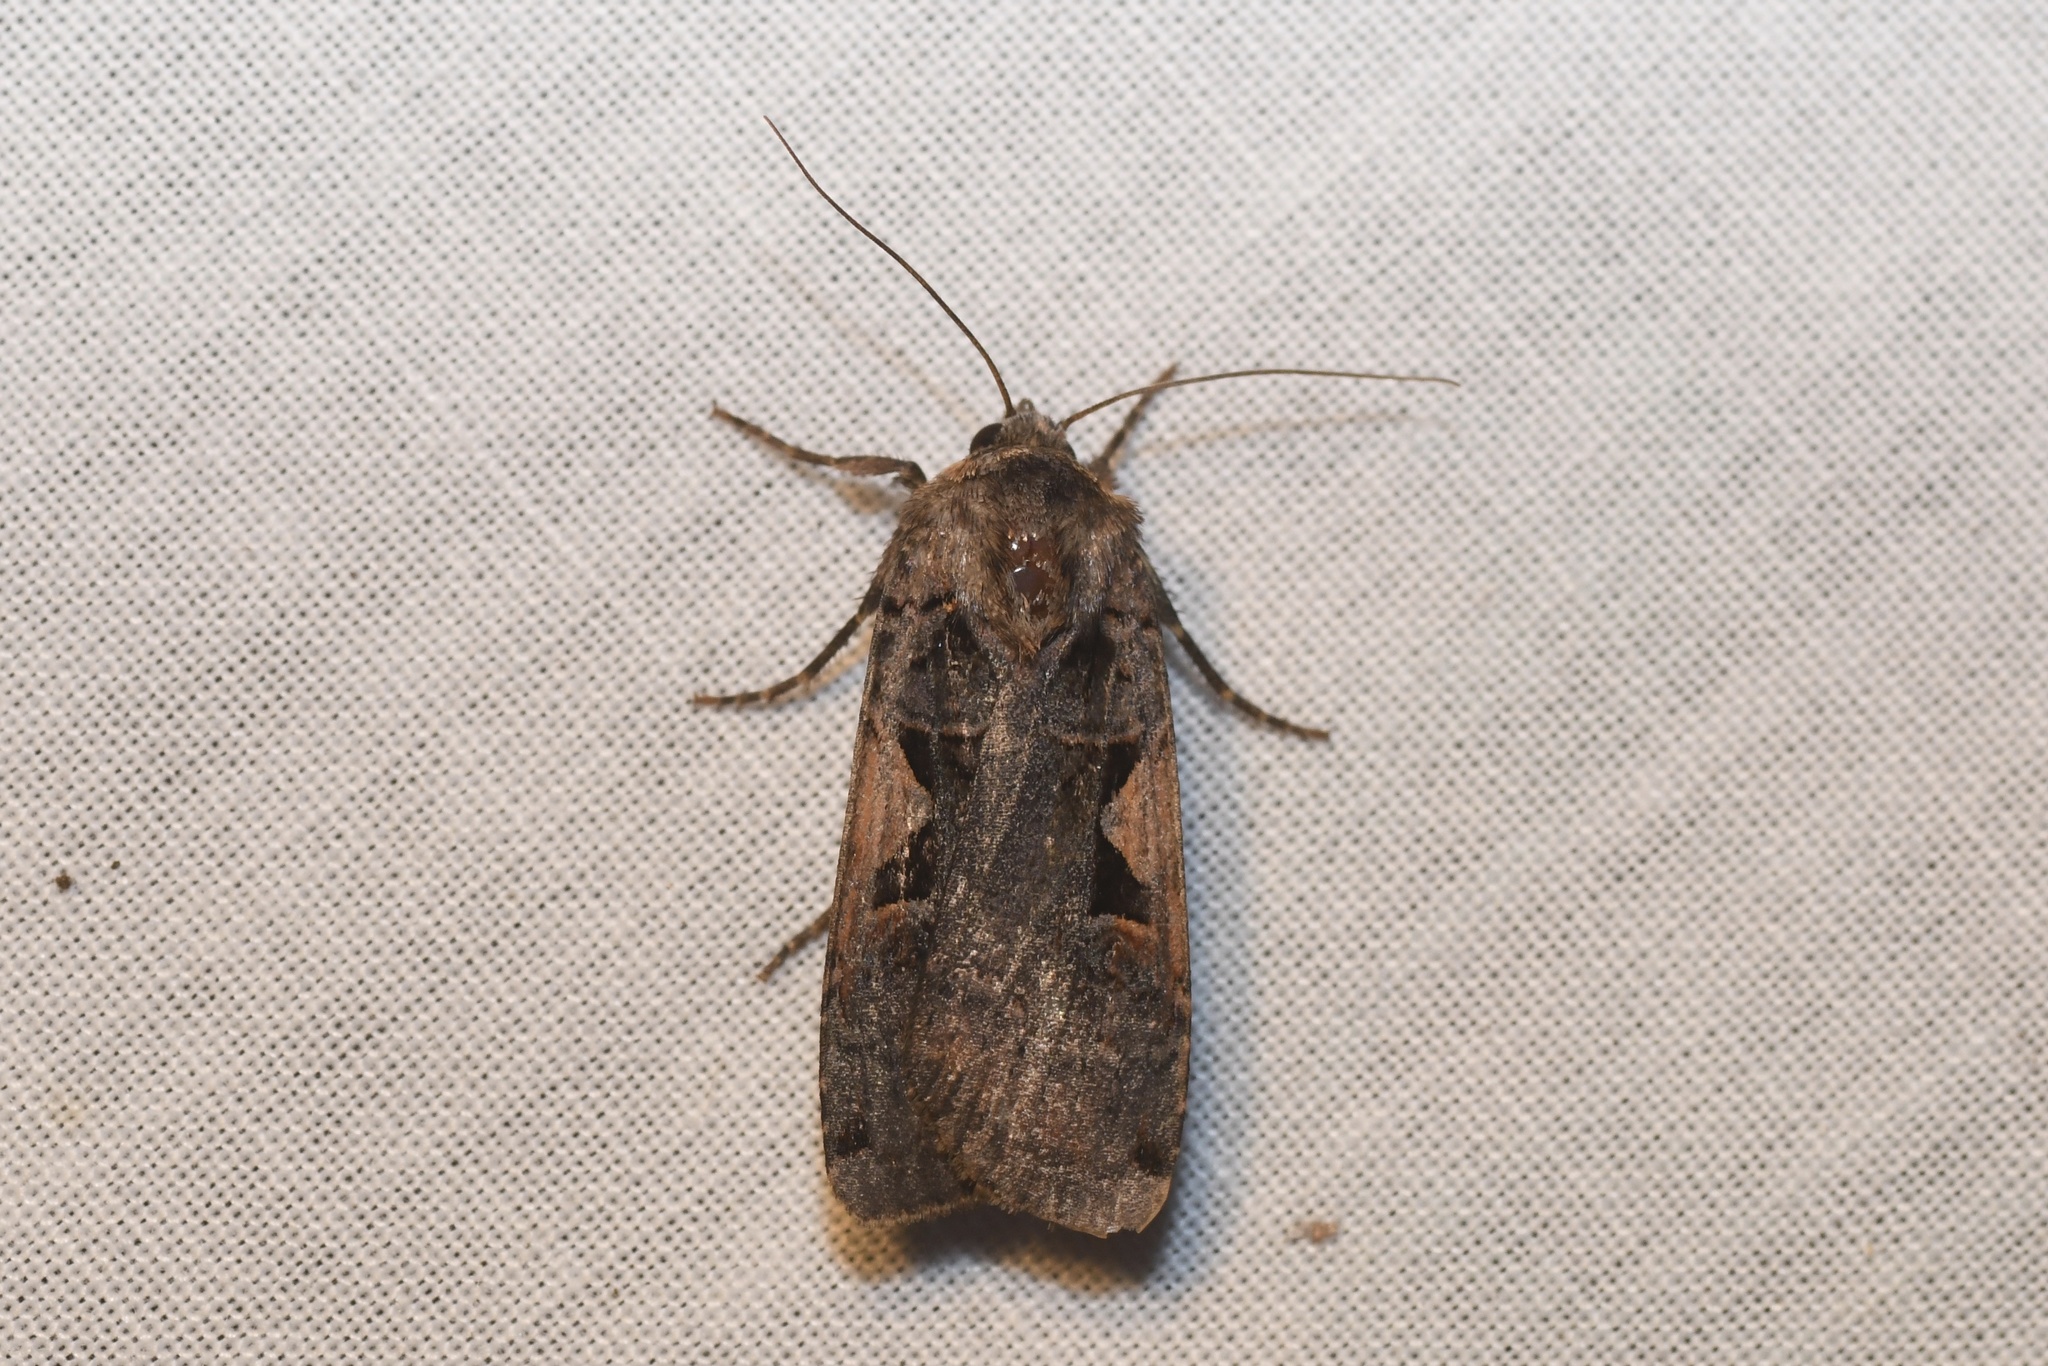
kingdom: Animalia
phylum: Arthropoda
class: Insecta
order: Lepidoptera
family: Noctuidae
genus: Xestia
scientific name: Xestia
